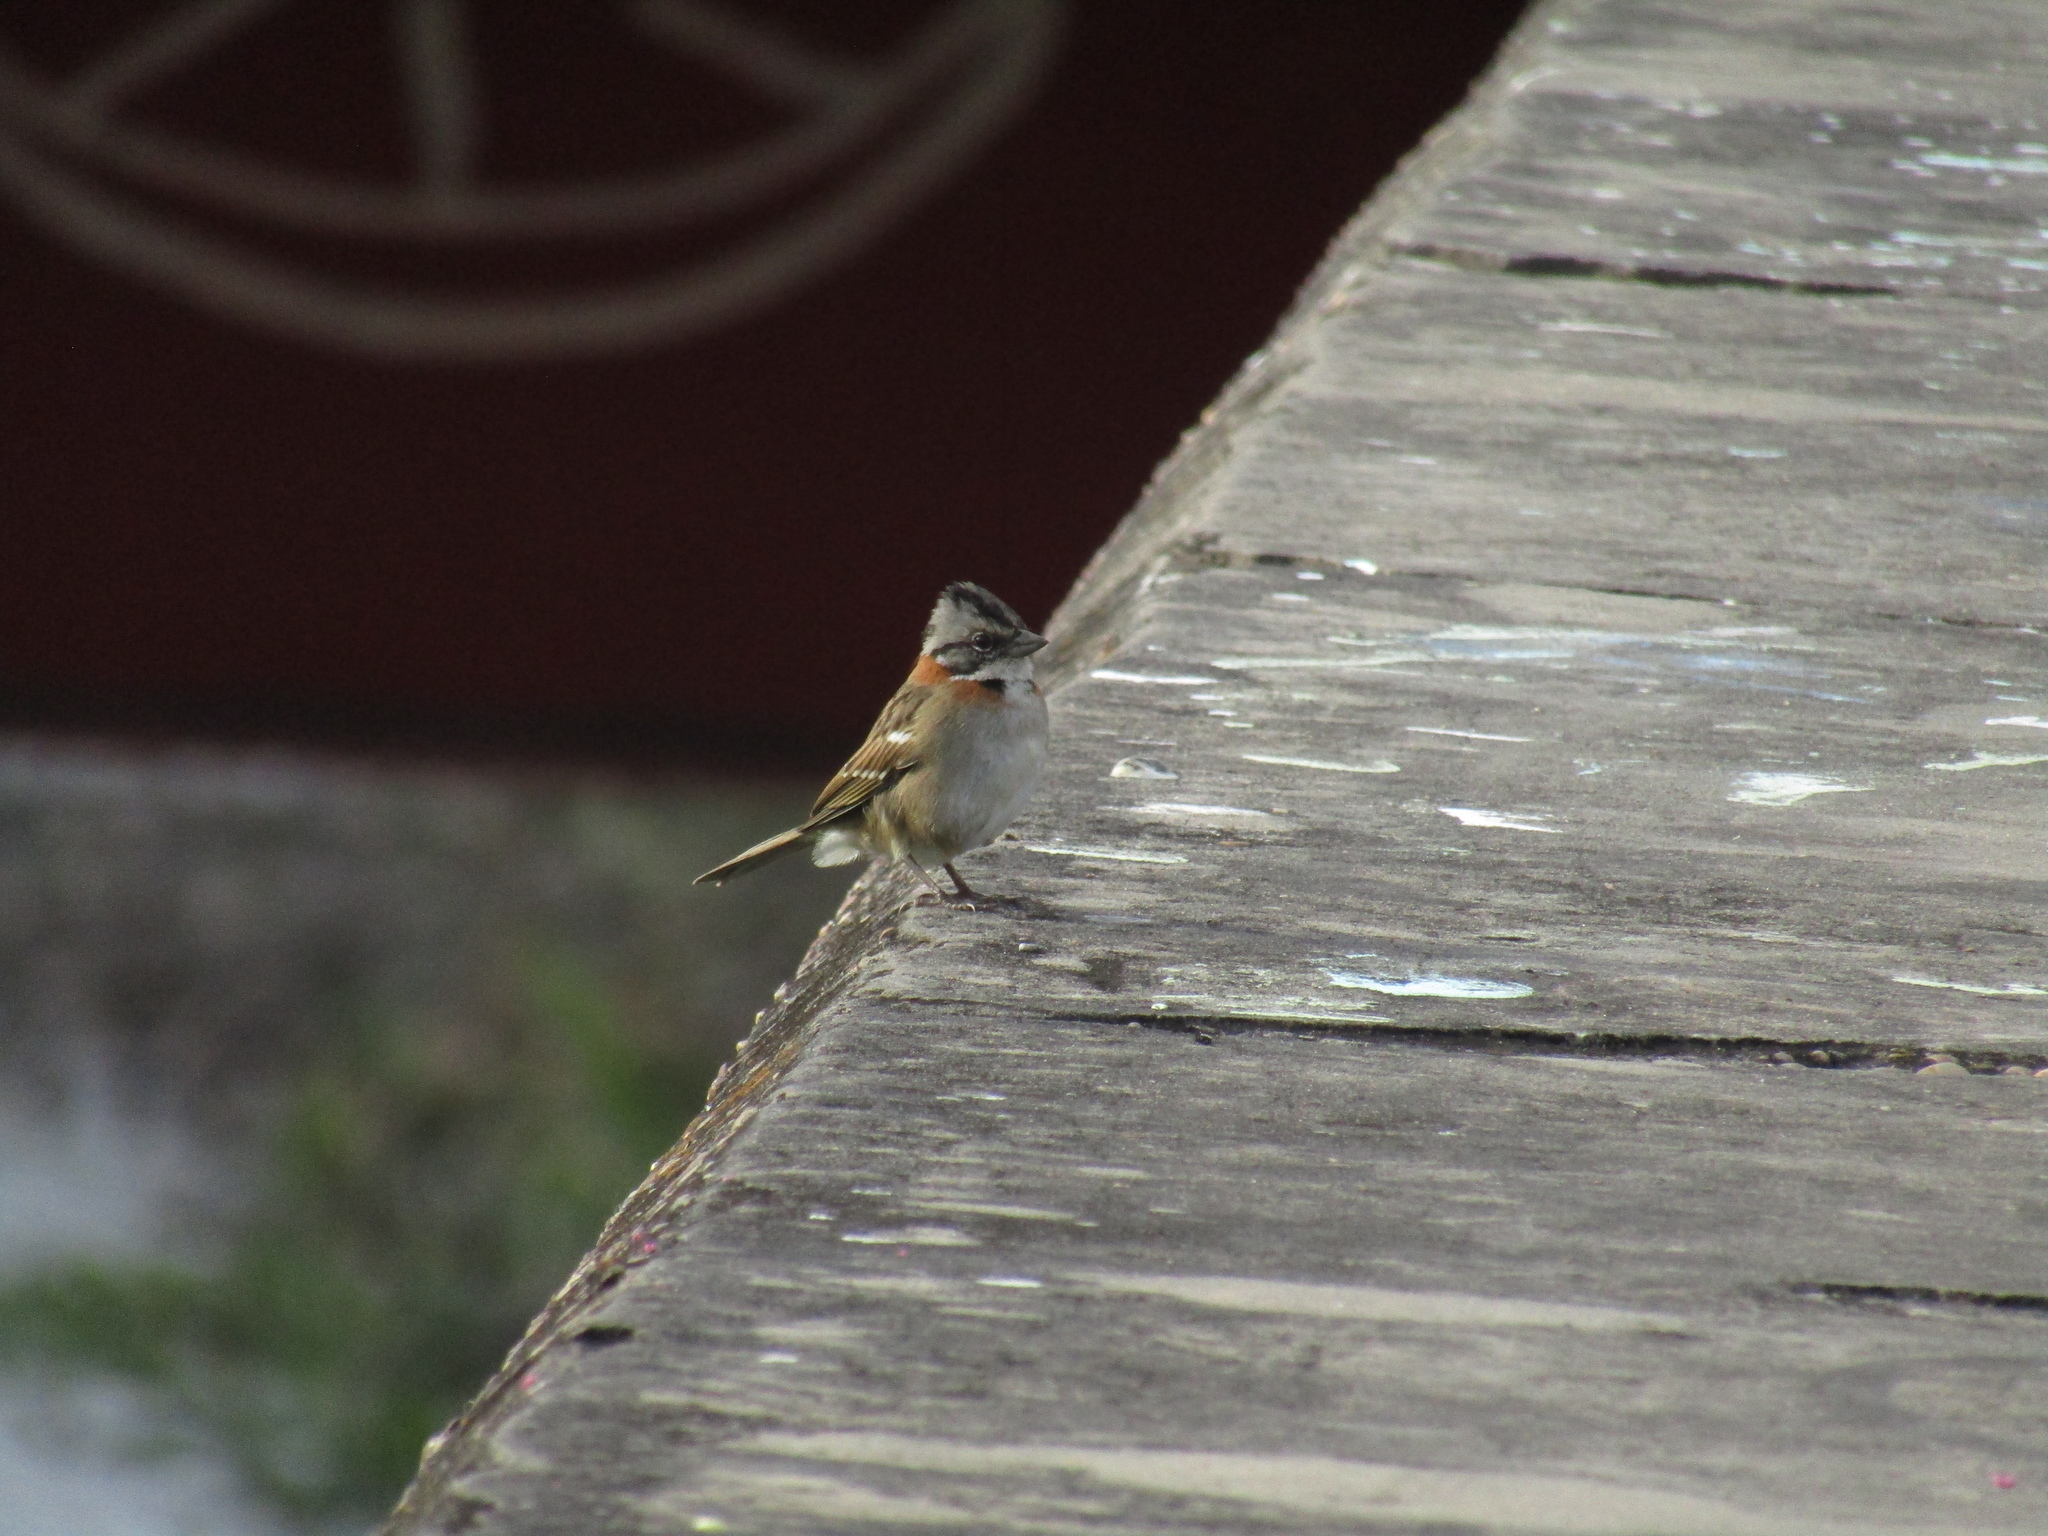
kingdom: Animalia
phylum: Chordata
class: Aves
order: Passeriformes
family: Passerellidae
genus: Zonotrichia
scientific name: Zonotrichia capensis
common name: Rufous-collared sparrow
